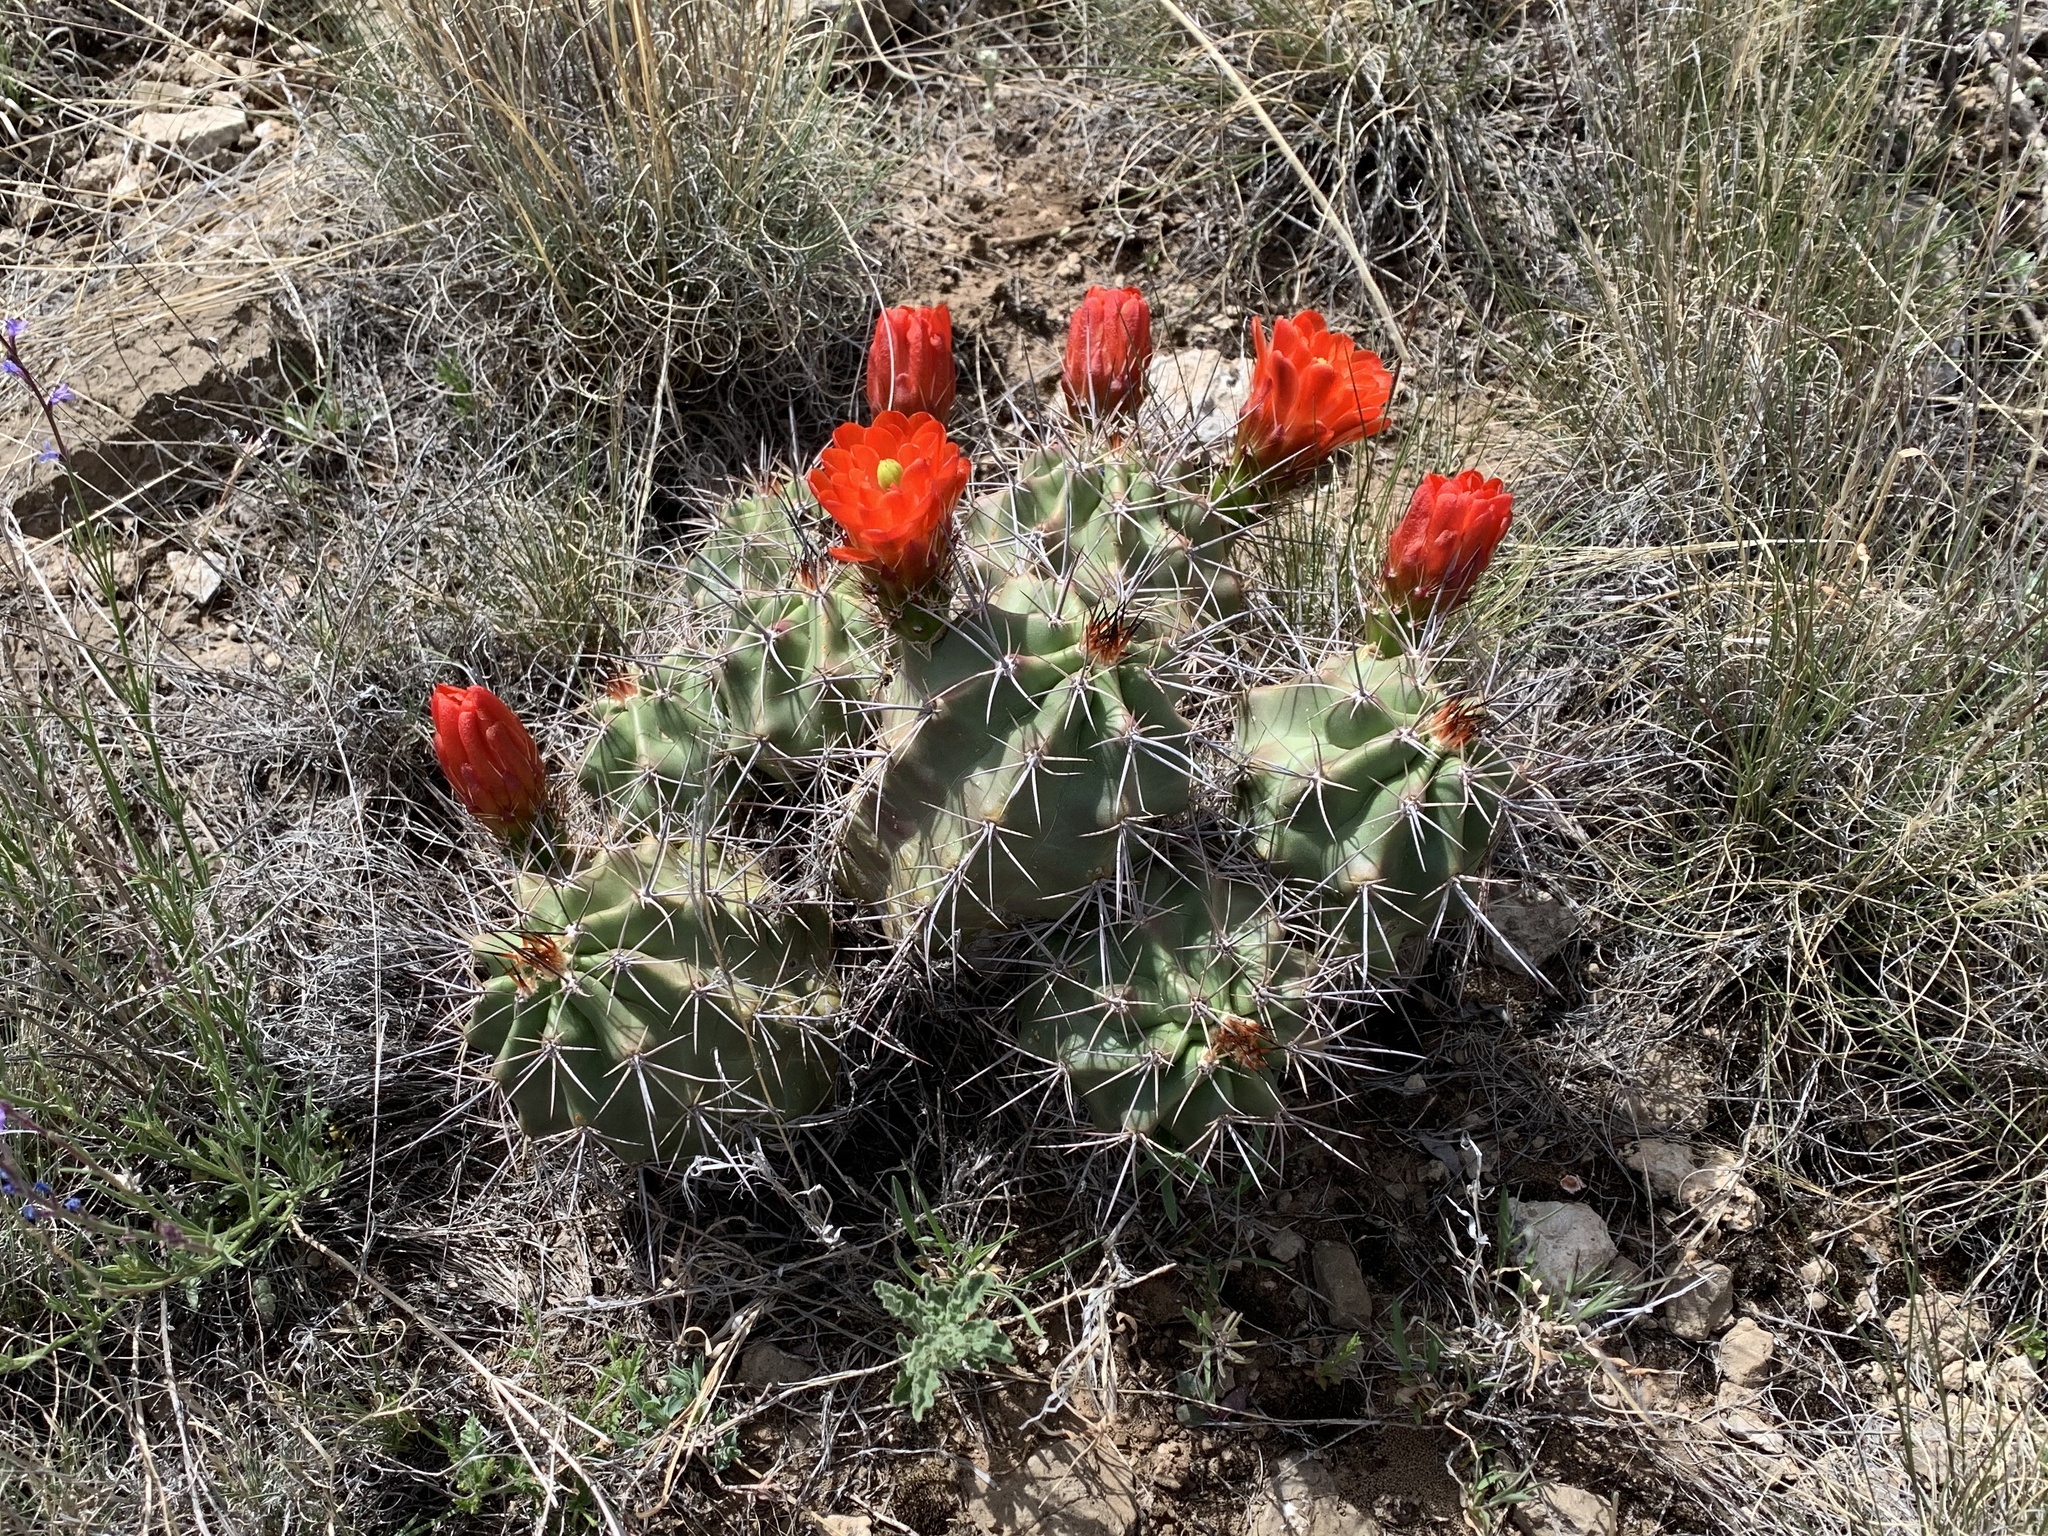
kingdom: Plantae
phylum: Tracheophyta
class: Magnoliopsida
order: Caryophyllales
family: Cactaceae
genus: Echinocereus
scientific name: Echinocereus coccineus
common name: Scarlet hedgehog cactus
